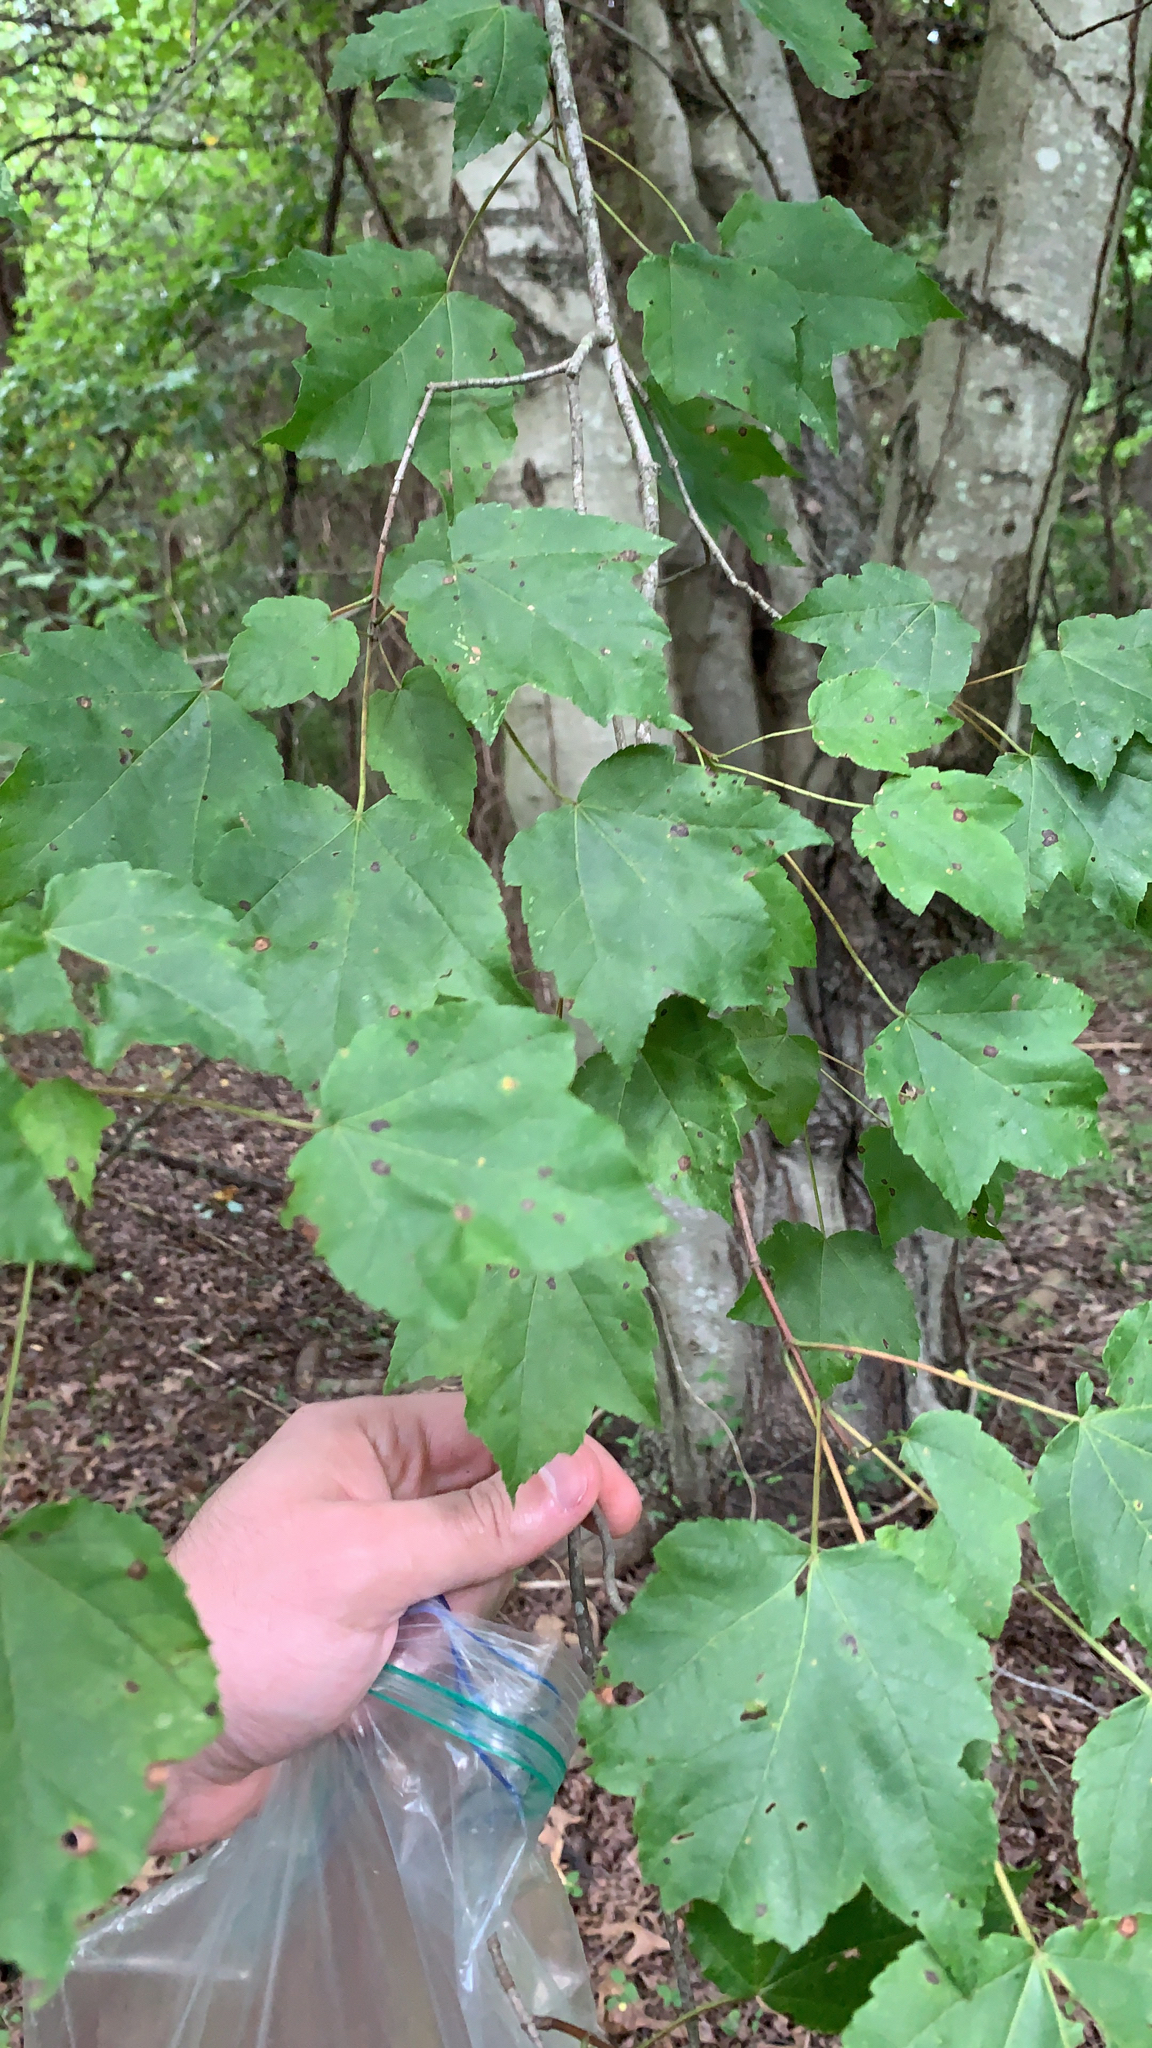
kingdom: Plantae
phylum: Tracheophyta
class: Magnoliopsida
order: Sapindales
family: Sapindaceae
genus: Acer
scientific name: Acer rubrum
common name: Red maple
